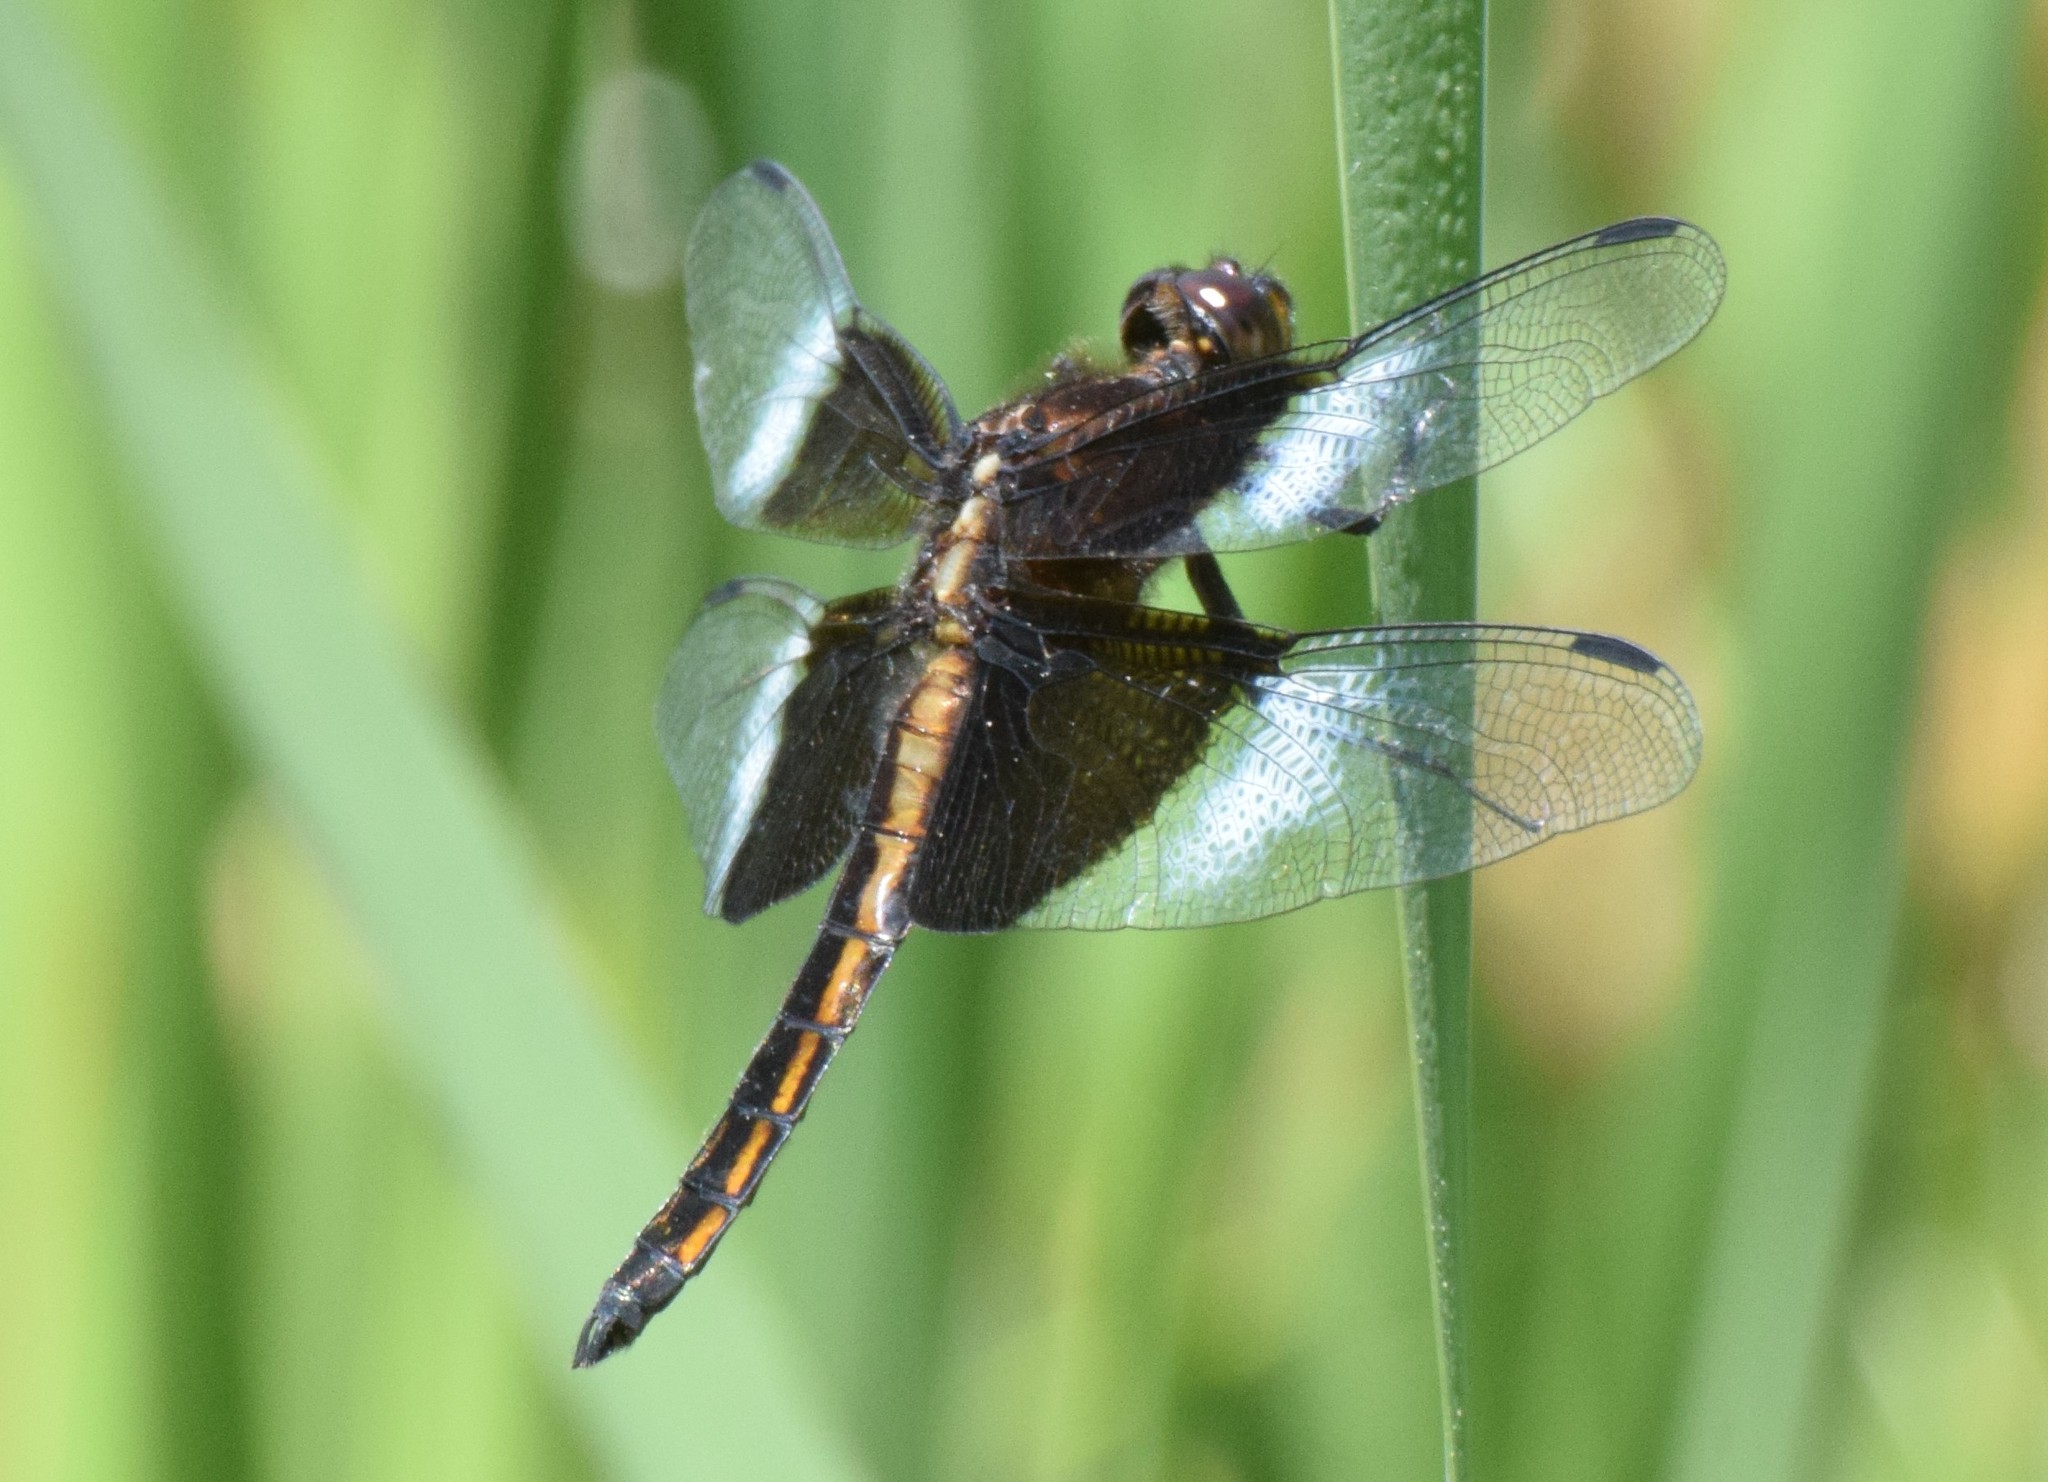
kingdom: Animalia
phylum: Arthropoda
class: Insecta
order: Odonata
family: Libellulidae
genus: Libellula
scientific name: Libellula luctuosa
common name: Widow skimmer
